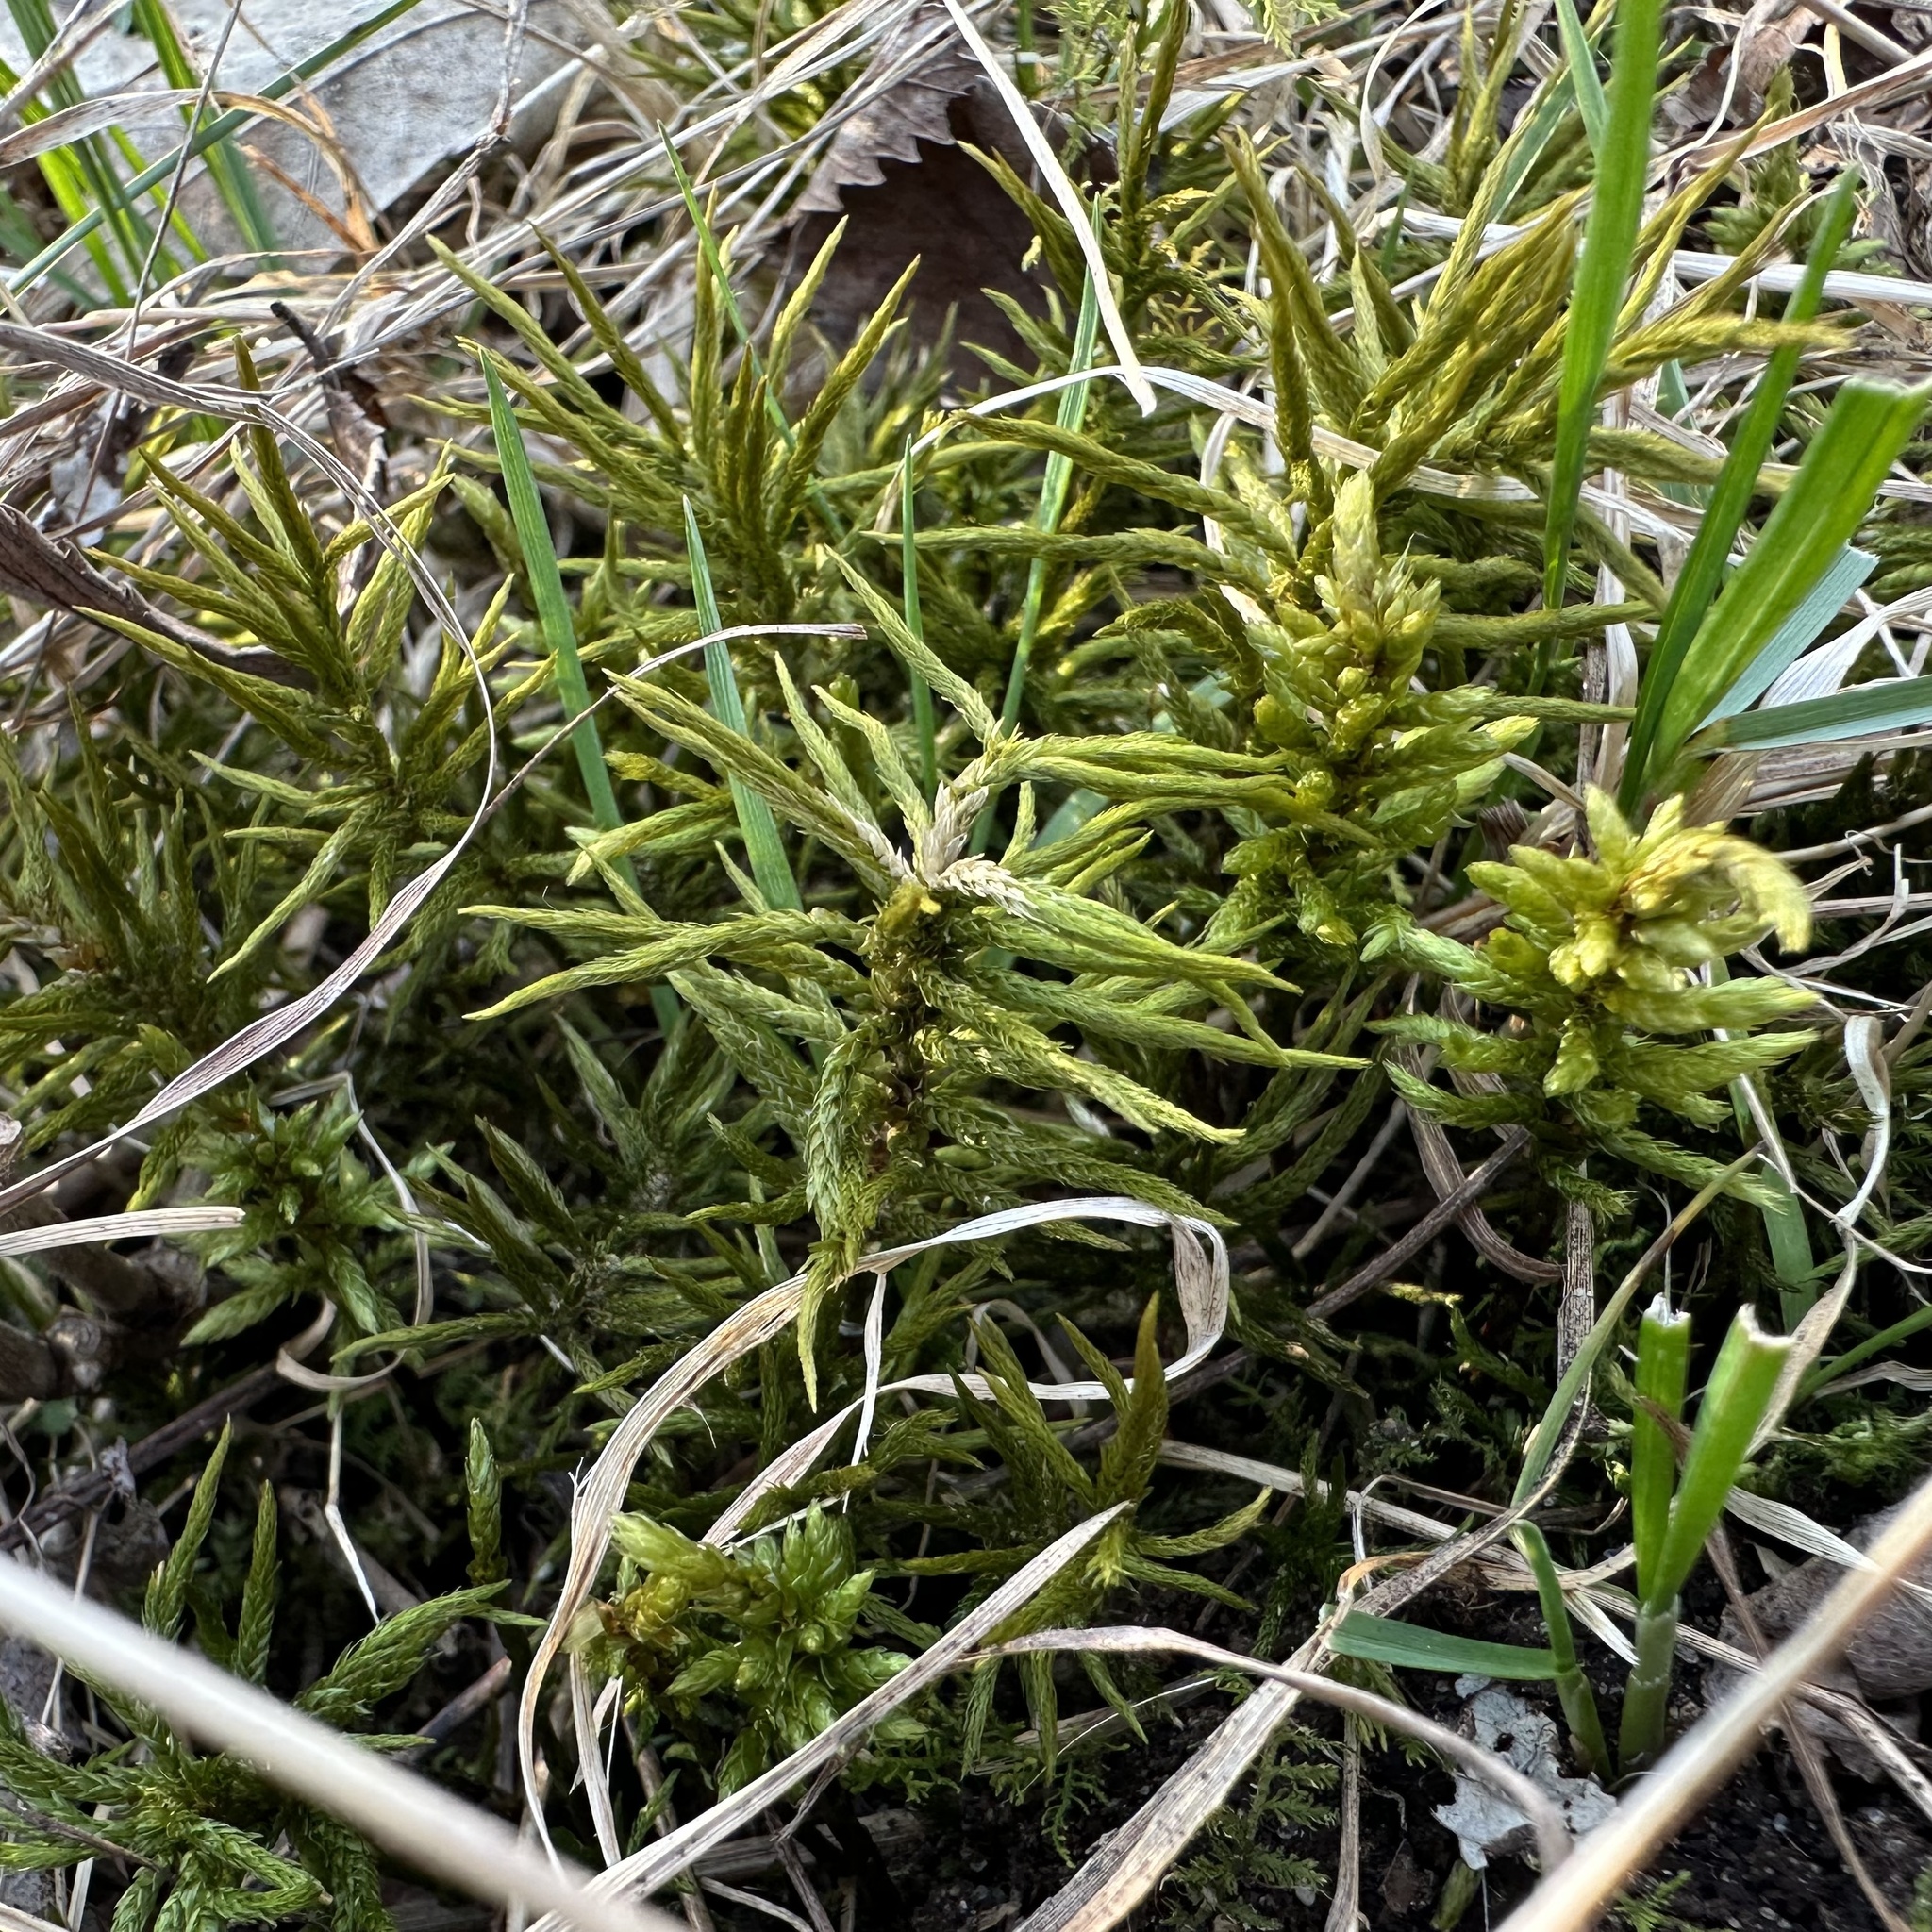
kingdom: Plantae
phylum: Bryophyta
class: Bryopsida
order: Hypnales
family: Climaciaceae
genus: Climacium
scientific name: Climacium americanum
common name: American tree moss
